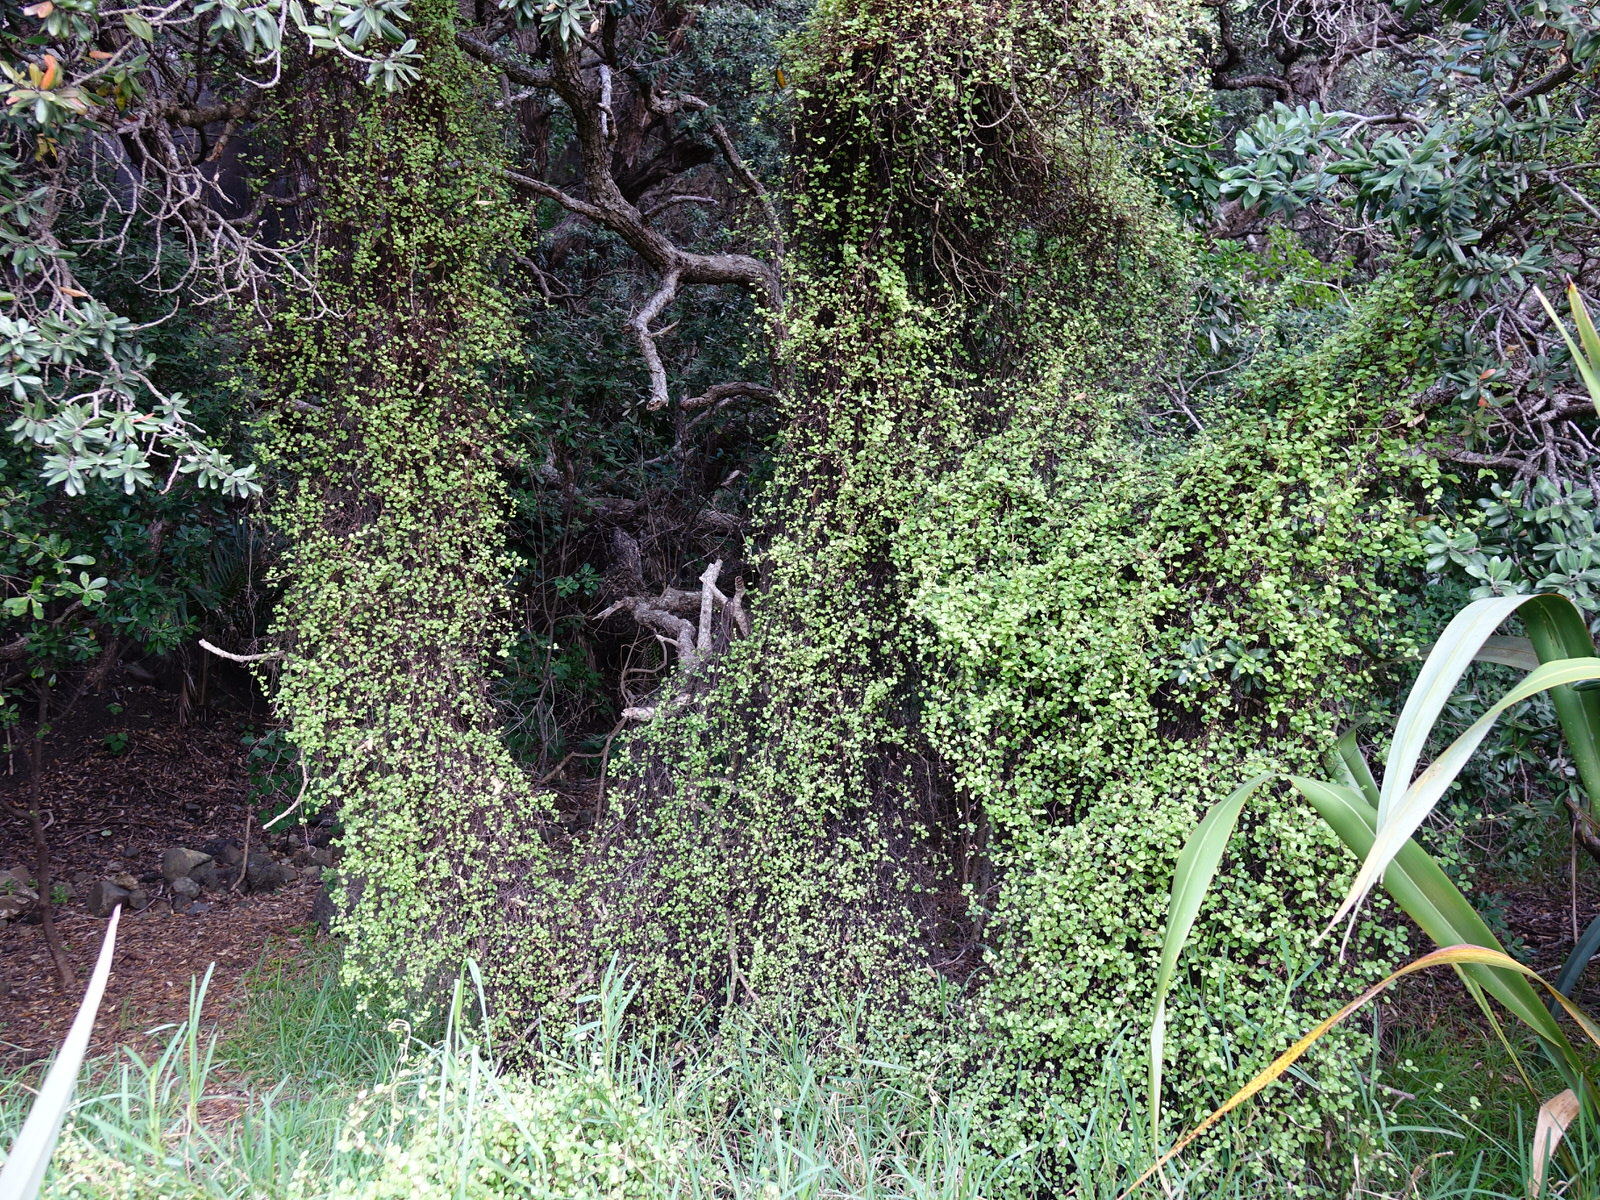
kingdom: Plantae
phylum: Tracheophyta
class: Magnoliopsida
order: Caryophyllales
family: Polygonaceae
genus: Muehlenbeckia
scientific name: Muehlenbeckia
